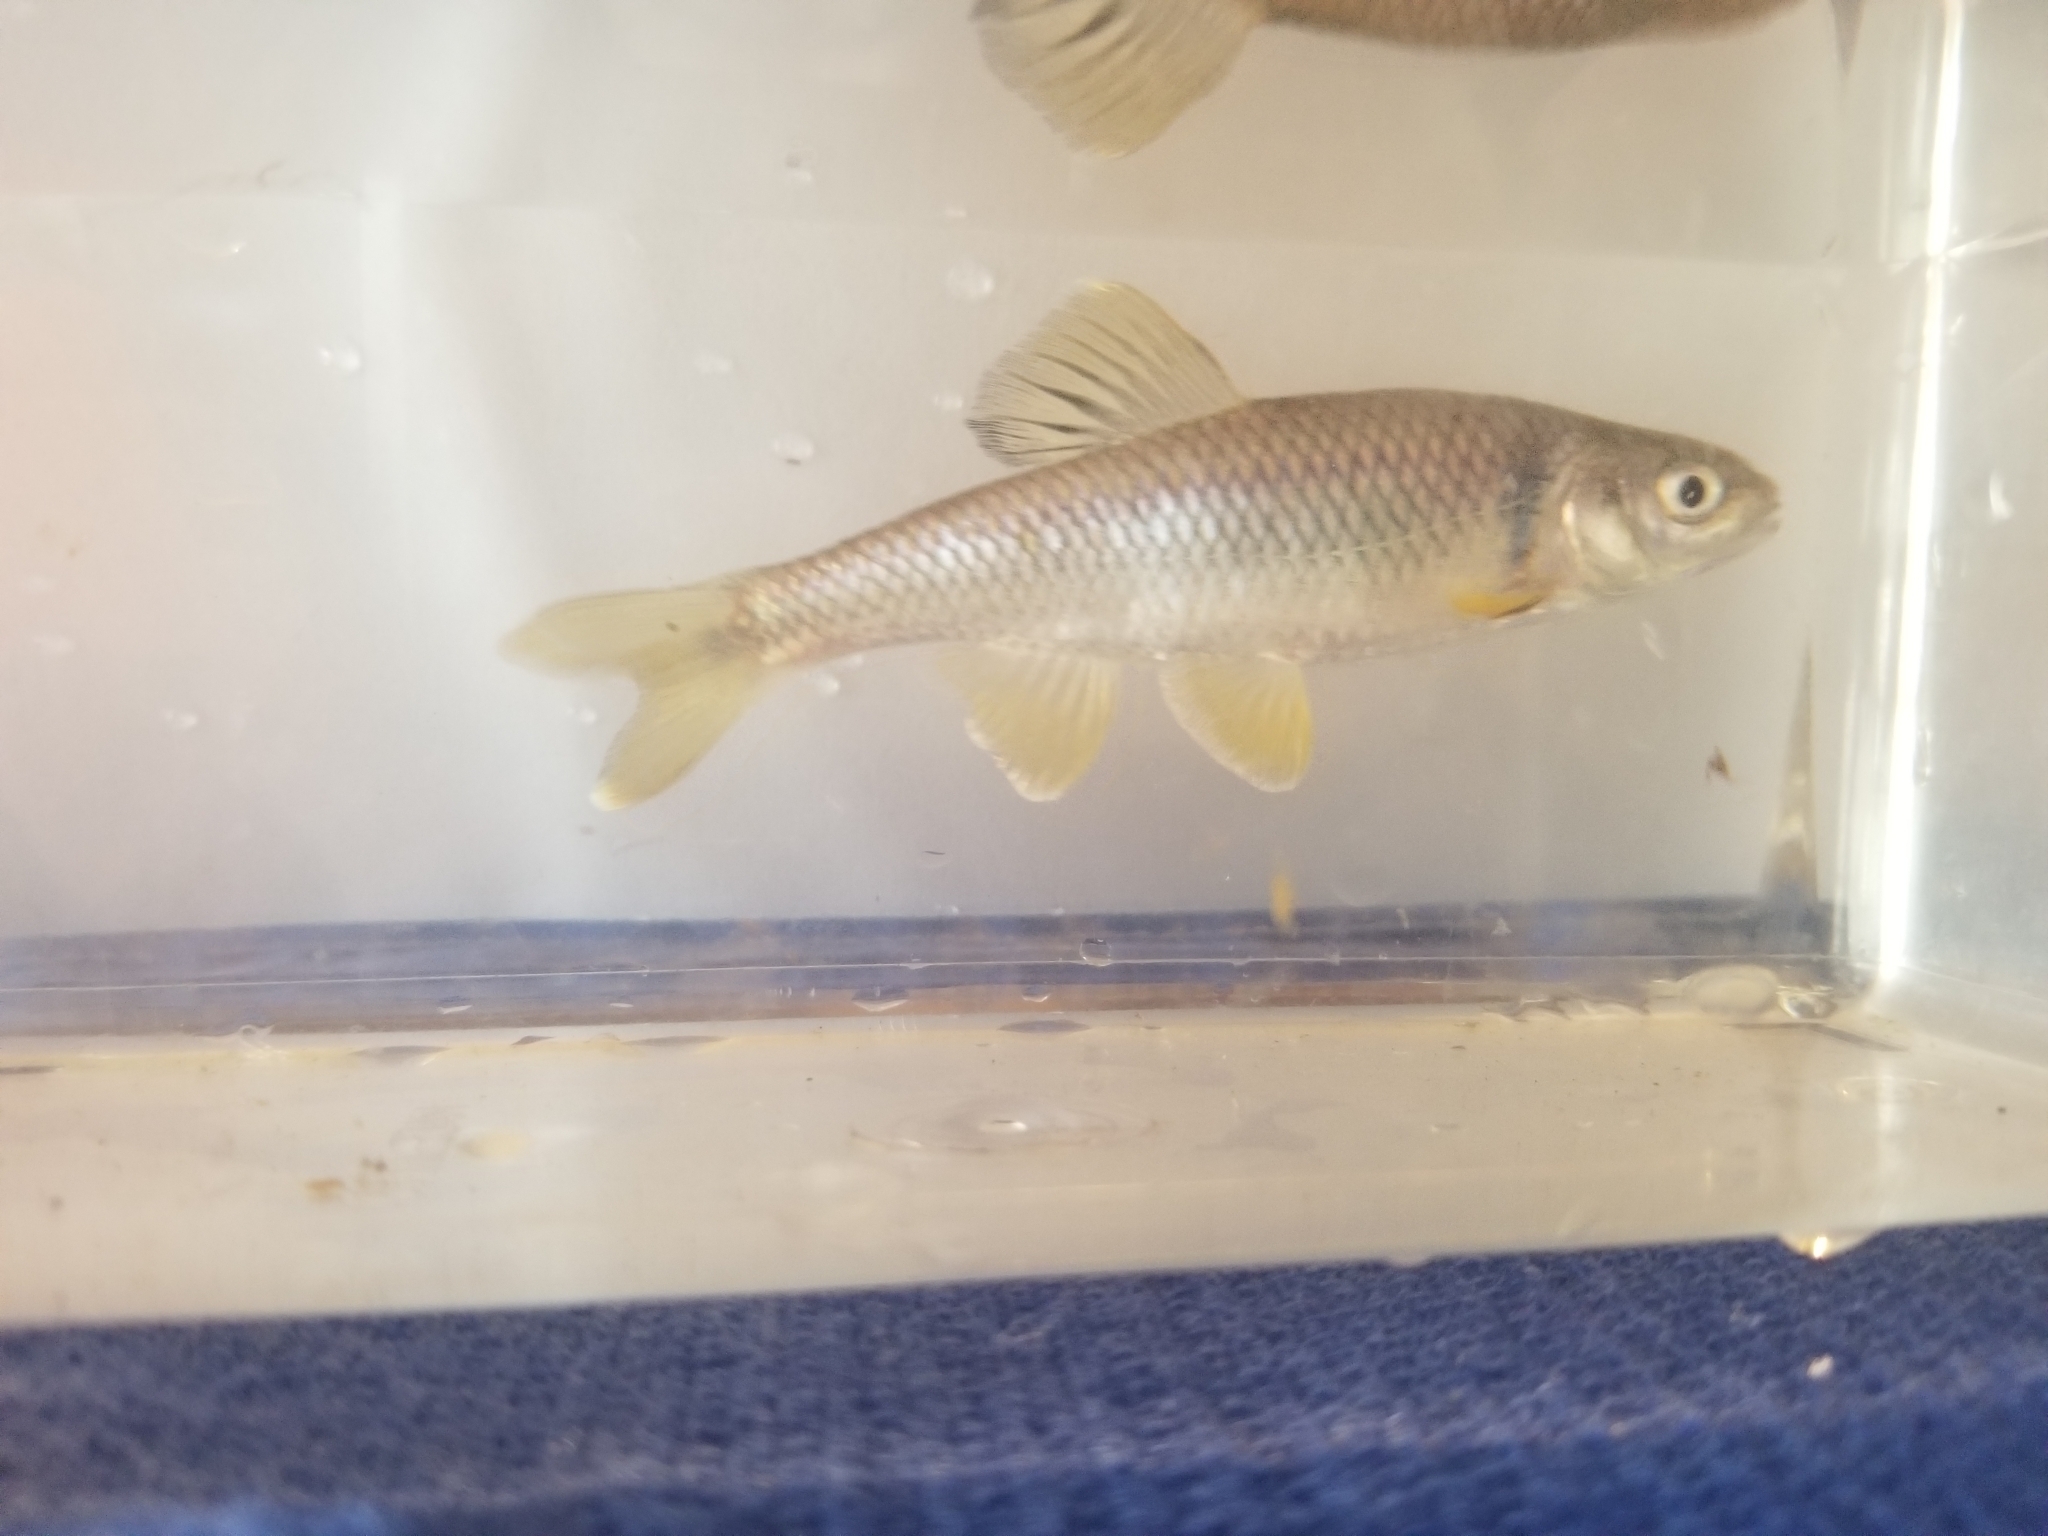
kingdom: Animalia
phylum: Chordata
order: Cypriniformes
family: Cyprinidae
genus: Cyprinella
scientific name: Cyprinella spiloptera
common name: Spotfin shiner
